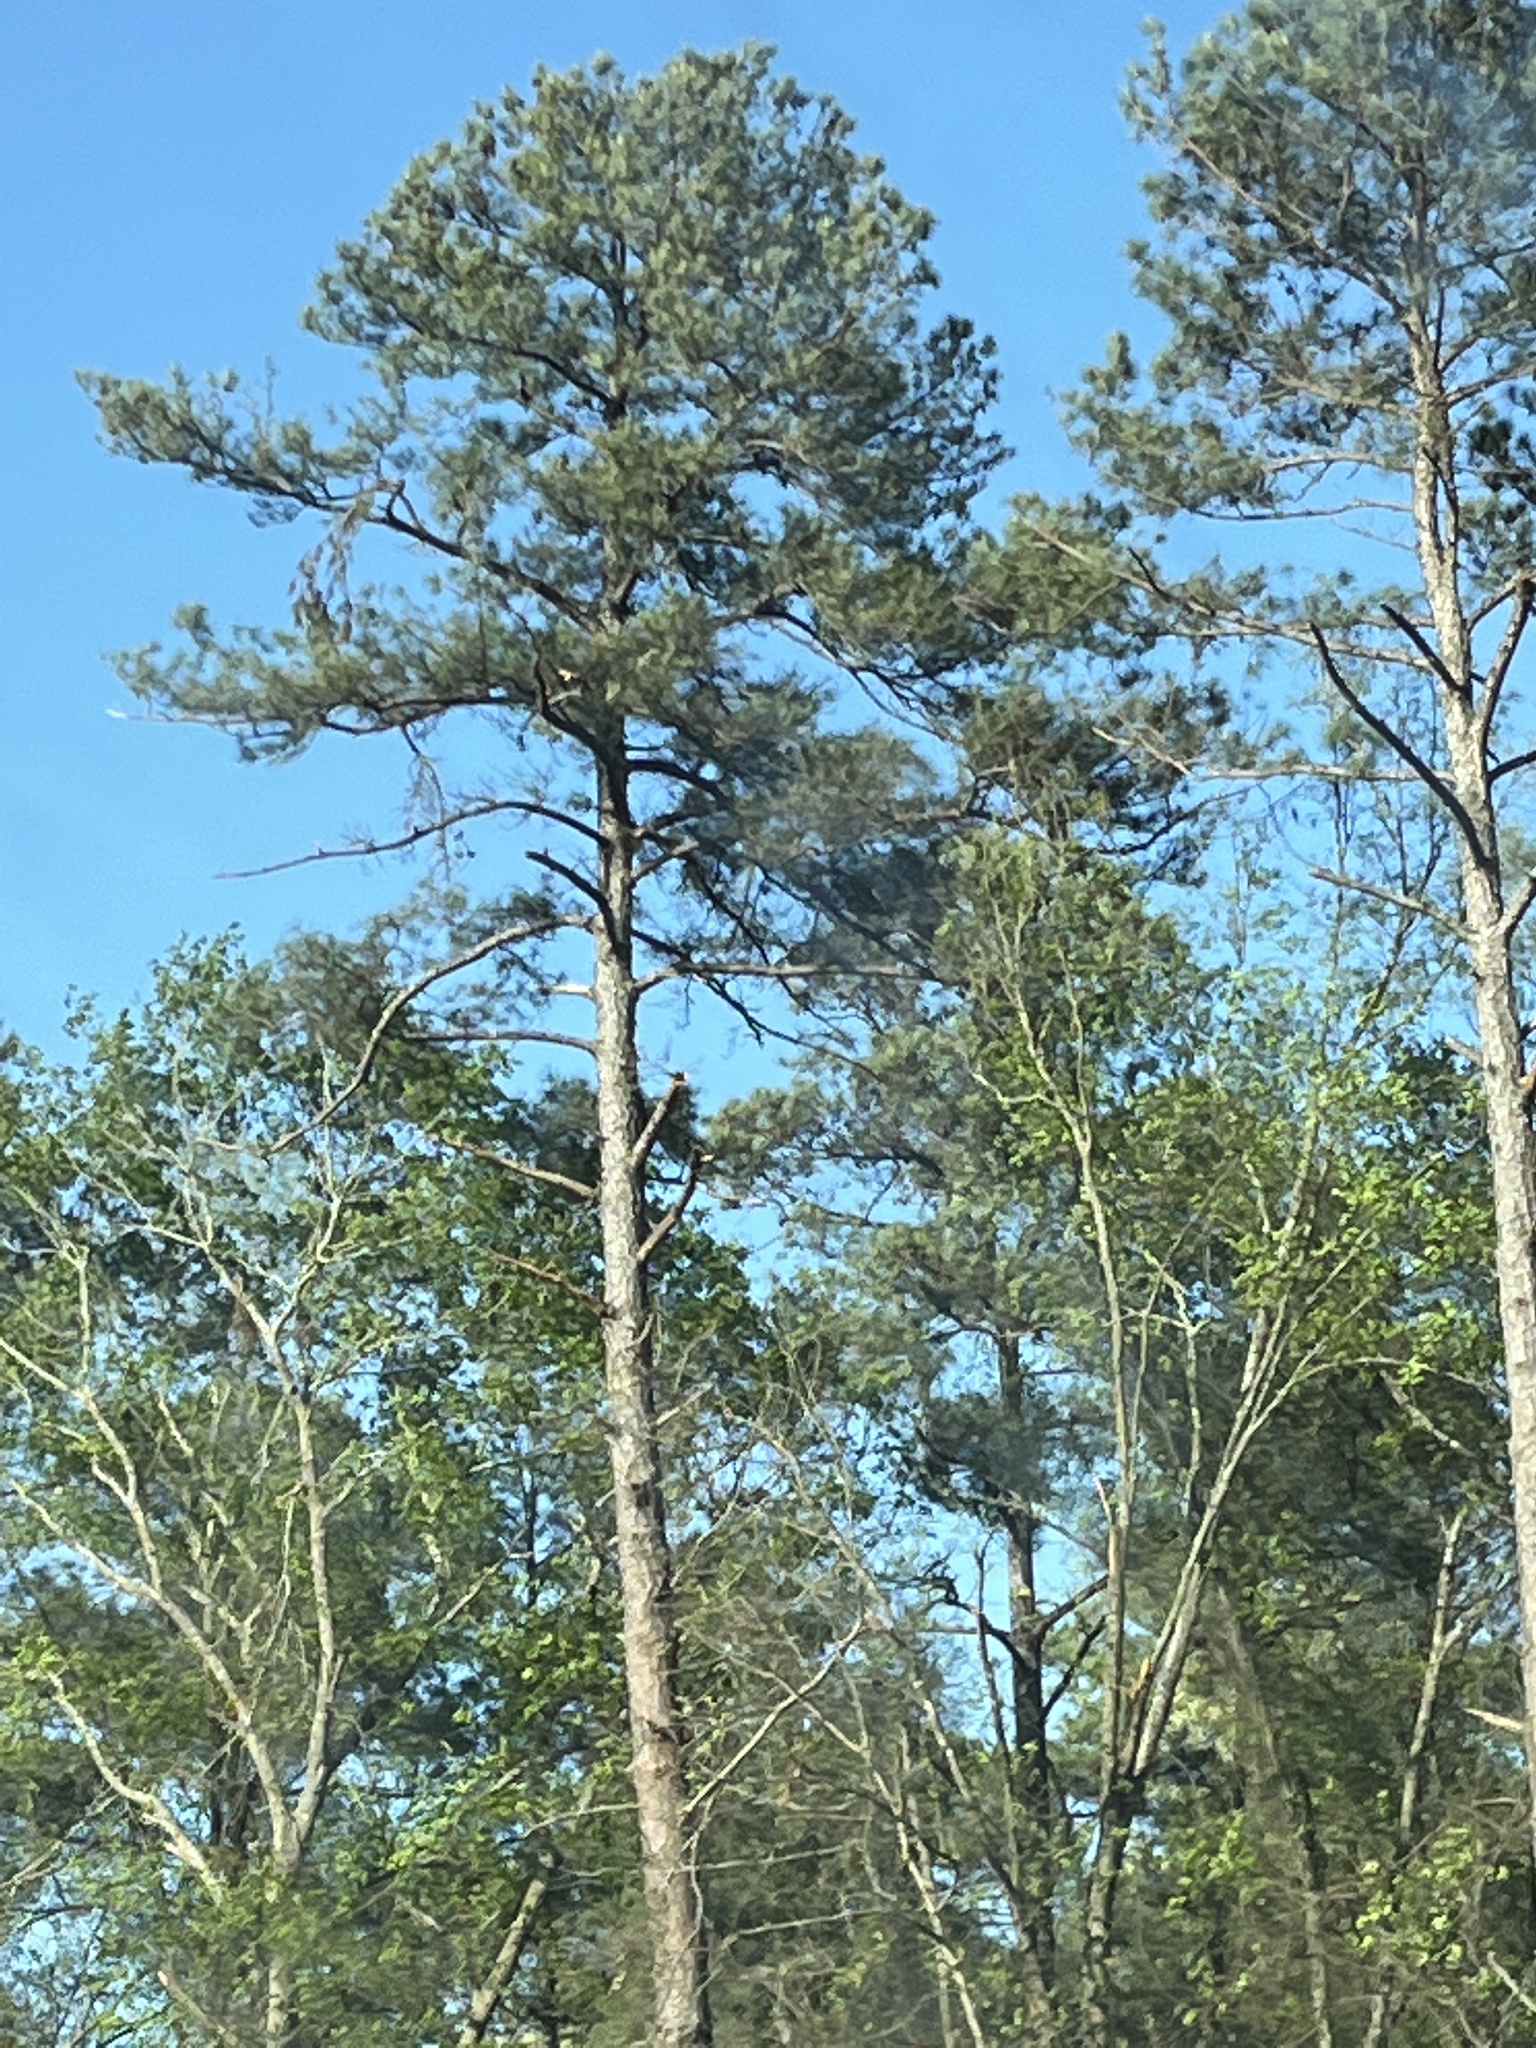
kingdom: Plantae
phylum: Tracheophyta
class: Pinopsida
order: Pinales
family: Pinaceae
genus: Pinus
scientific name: Pinus taeda
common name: Loblolly pine
